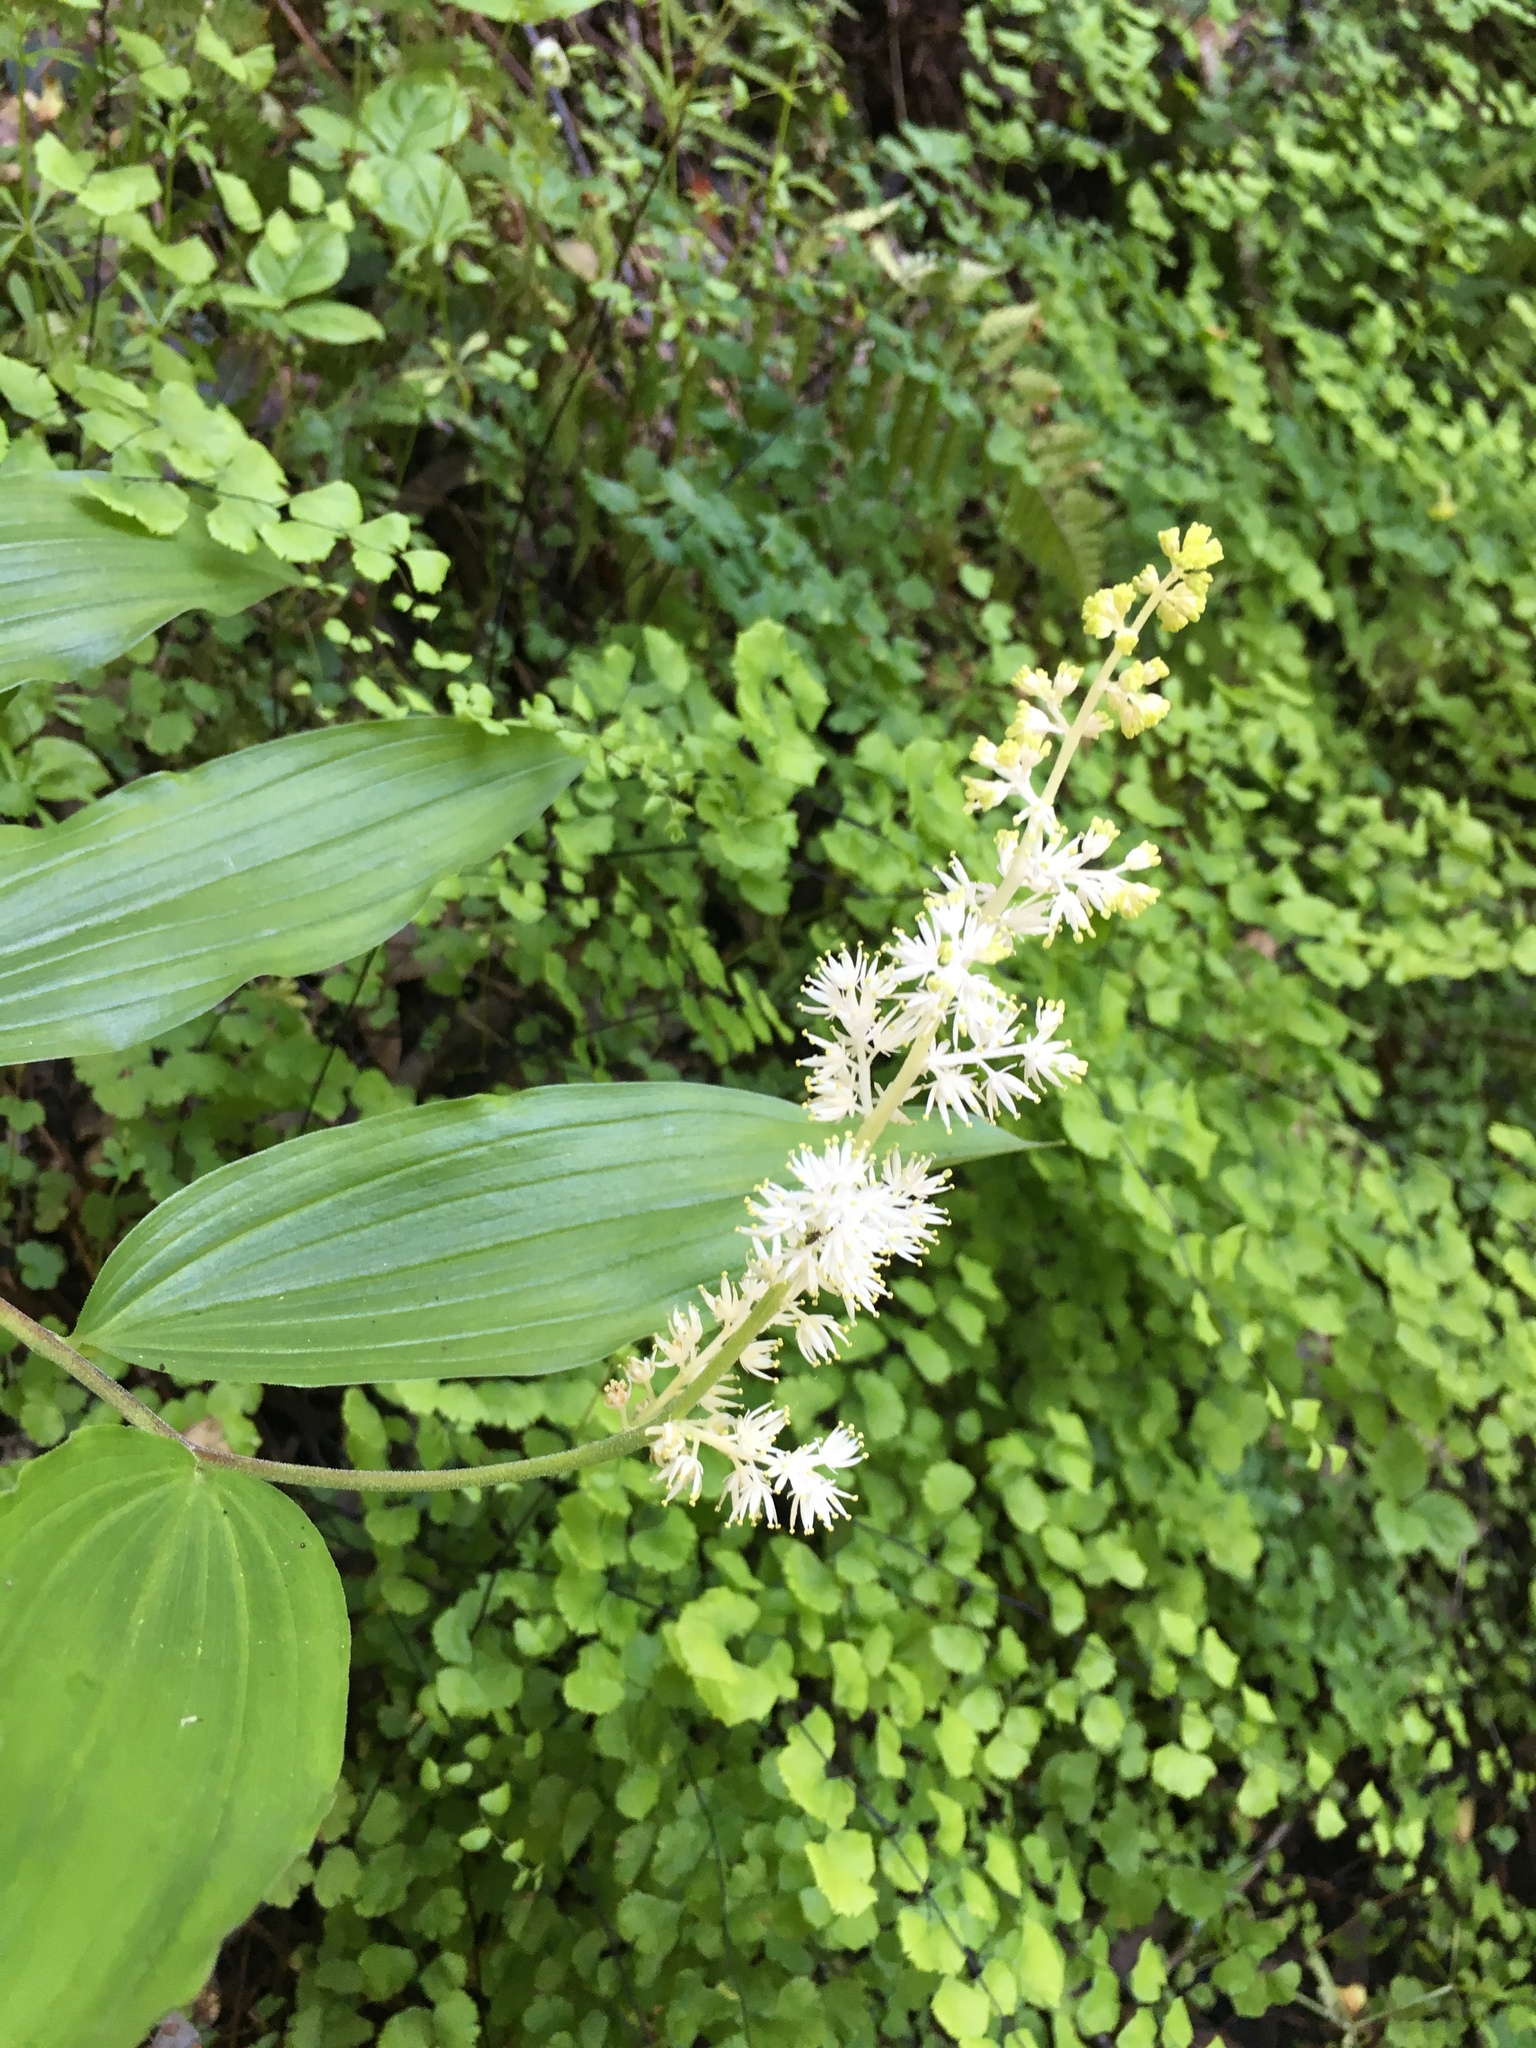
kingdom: Plantae
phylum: Tracheophyta
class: Liliopsida
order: Asparagales
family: Asparagaceae
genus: Maianthemum
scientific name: Maianthemum racemosum
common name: False spikenard
